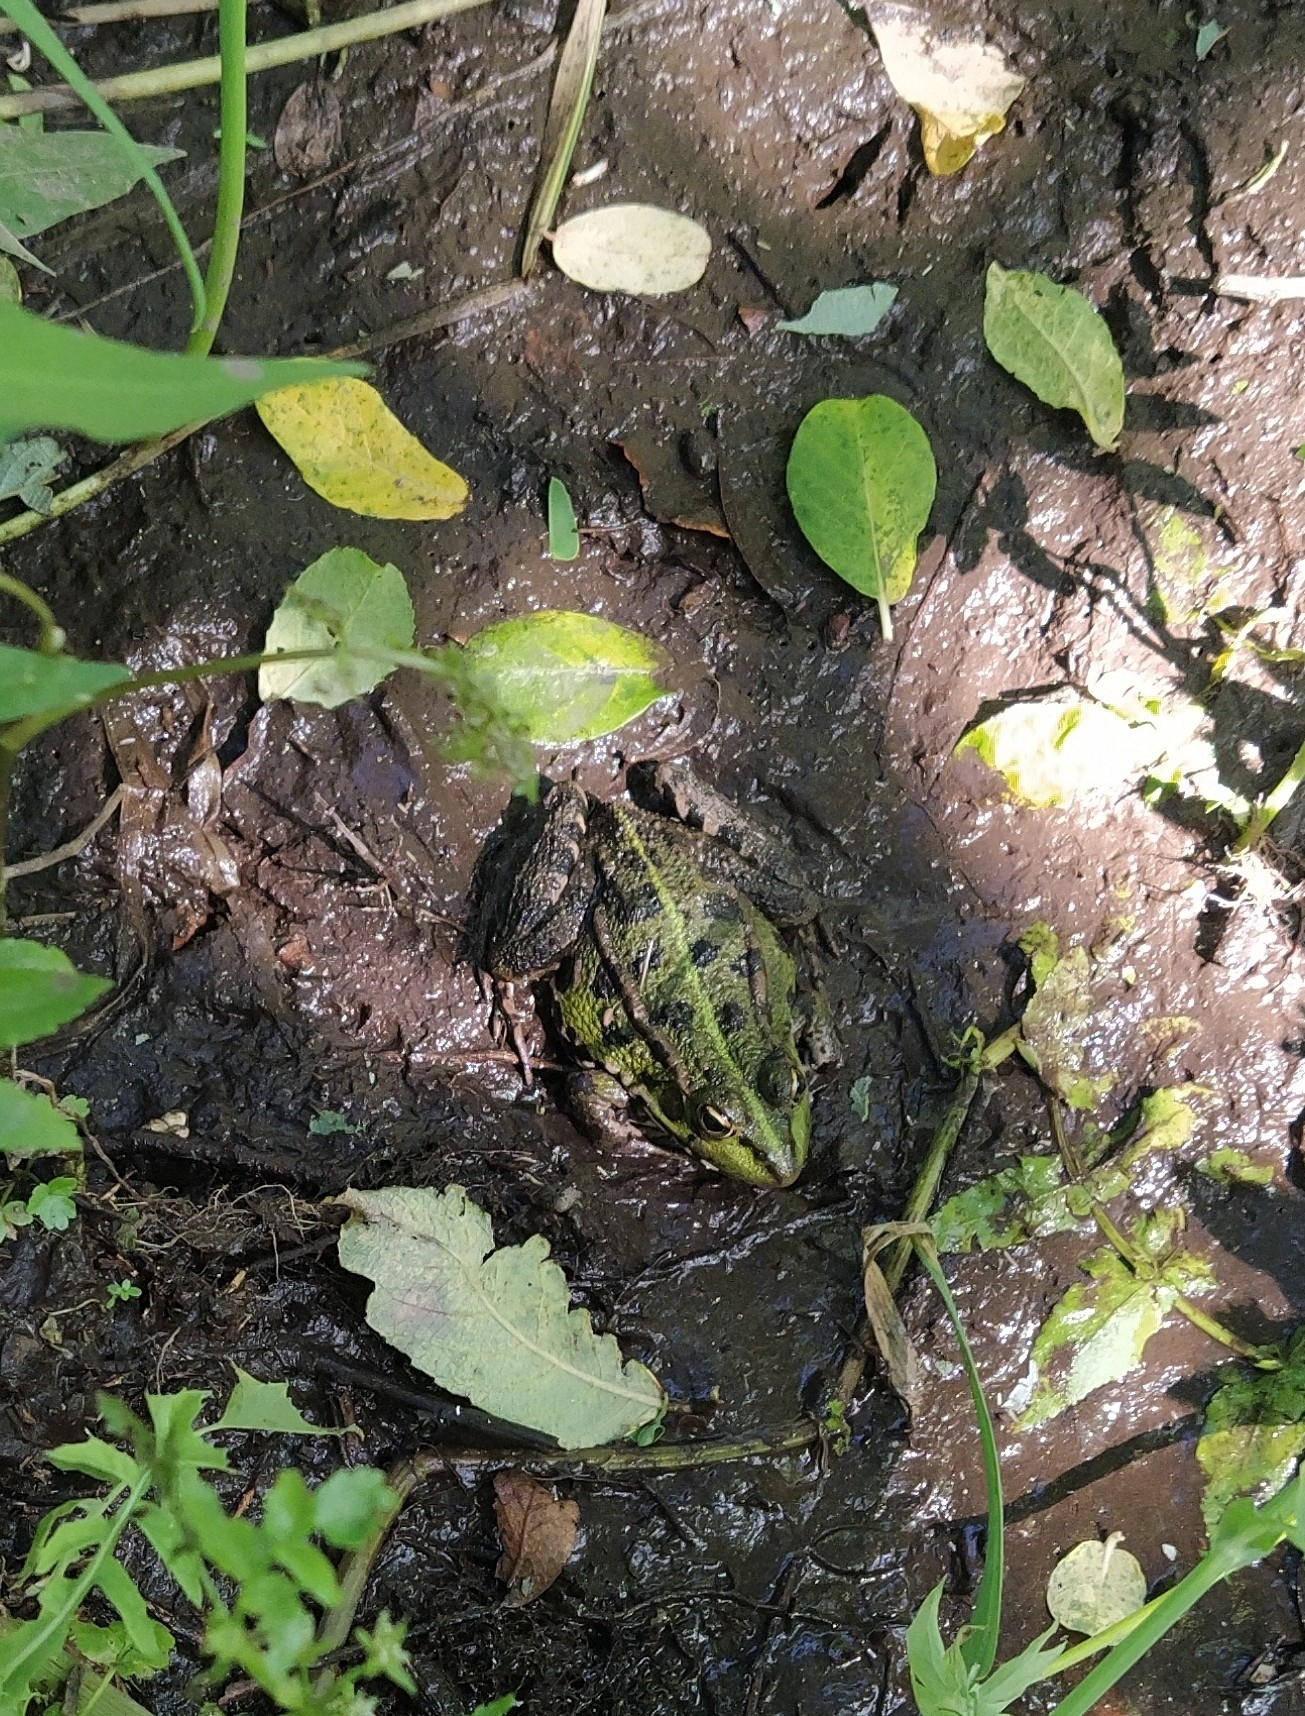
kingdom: Animalia
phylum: Chordata
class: Amphibia
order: Anura
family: Ranidae
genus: Pelophylax
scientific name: Pelophylax perezi
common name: Perez's frog
